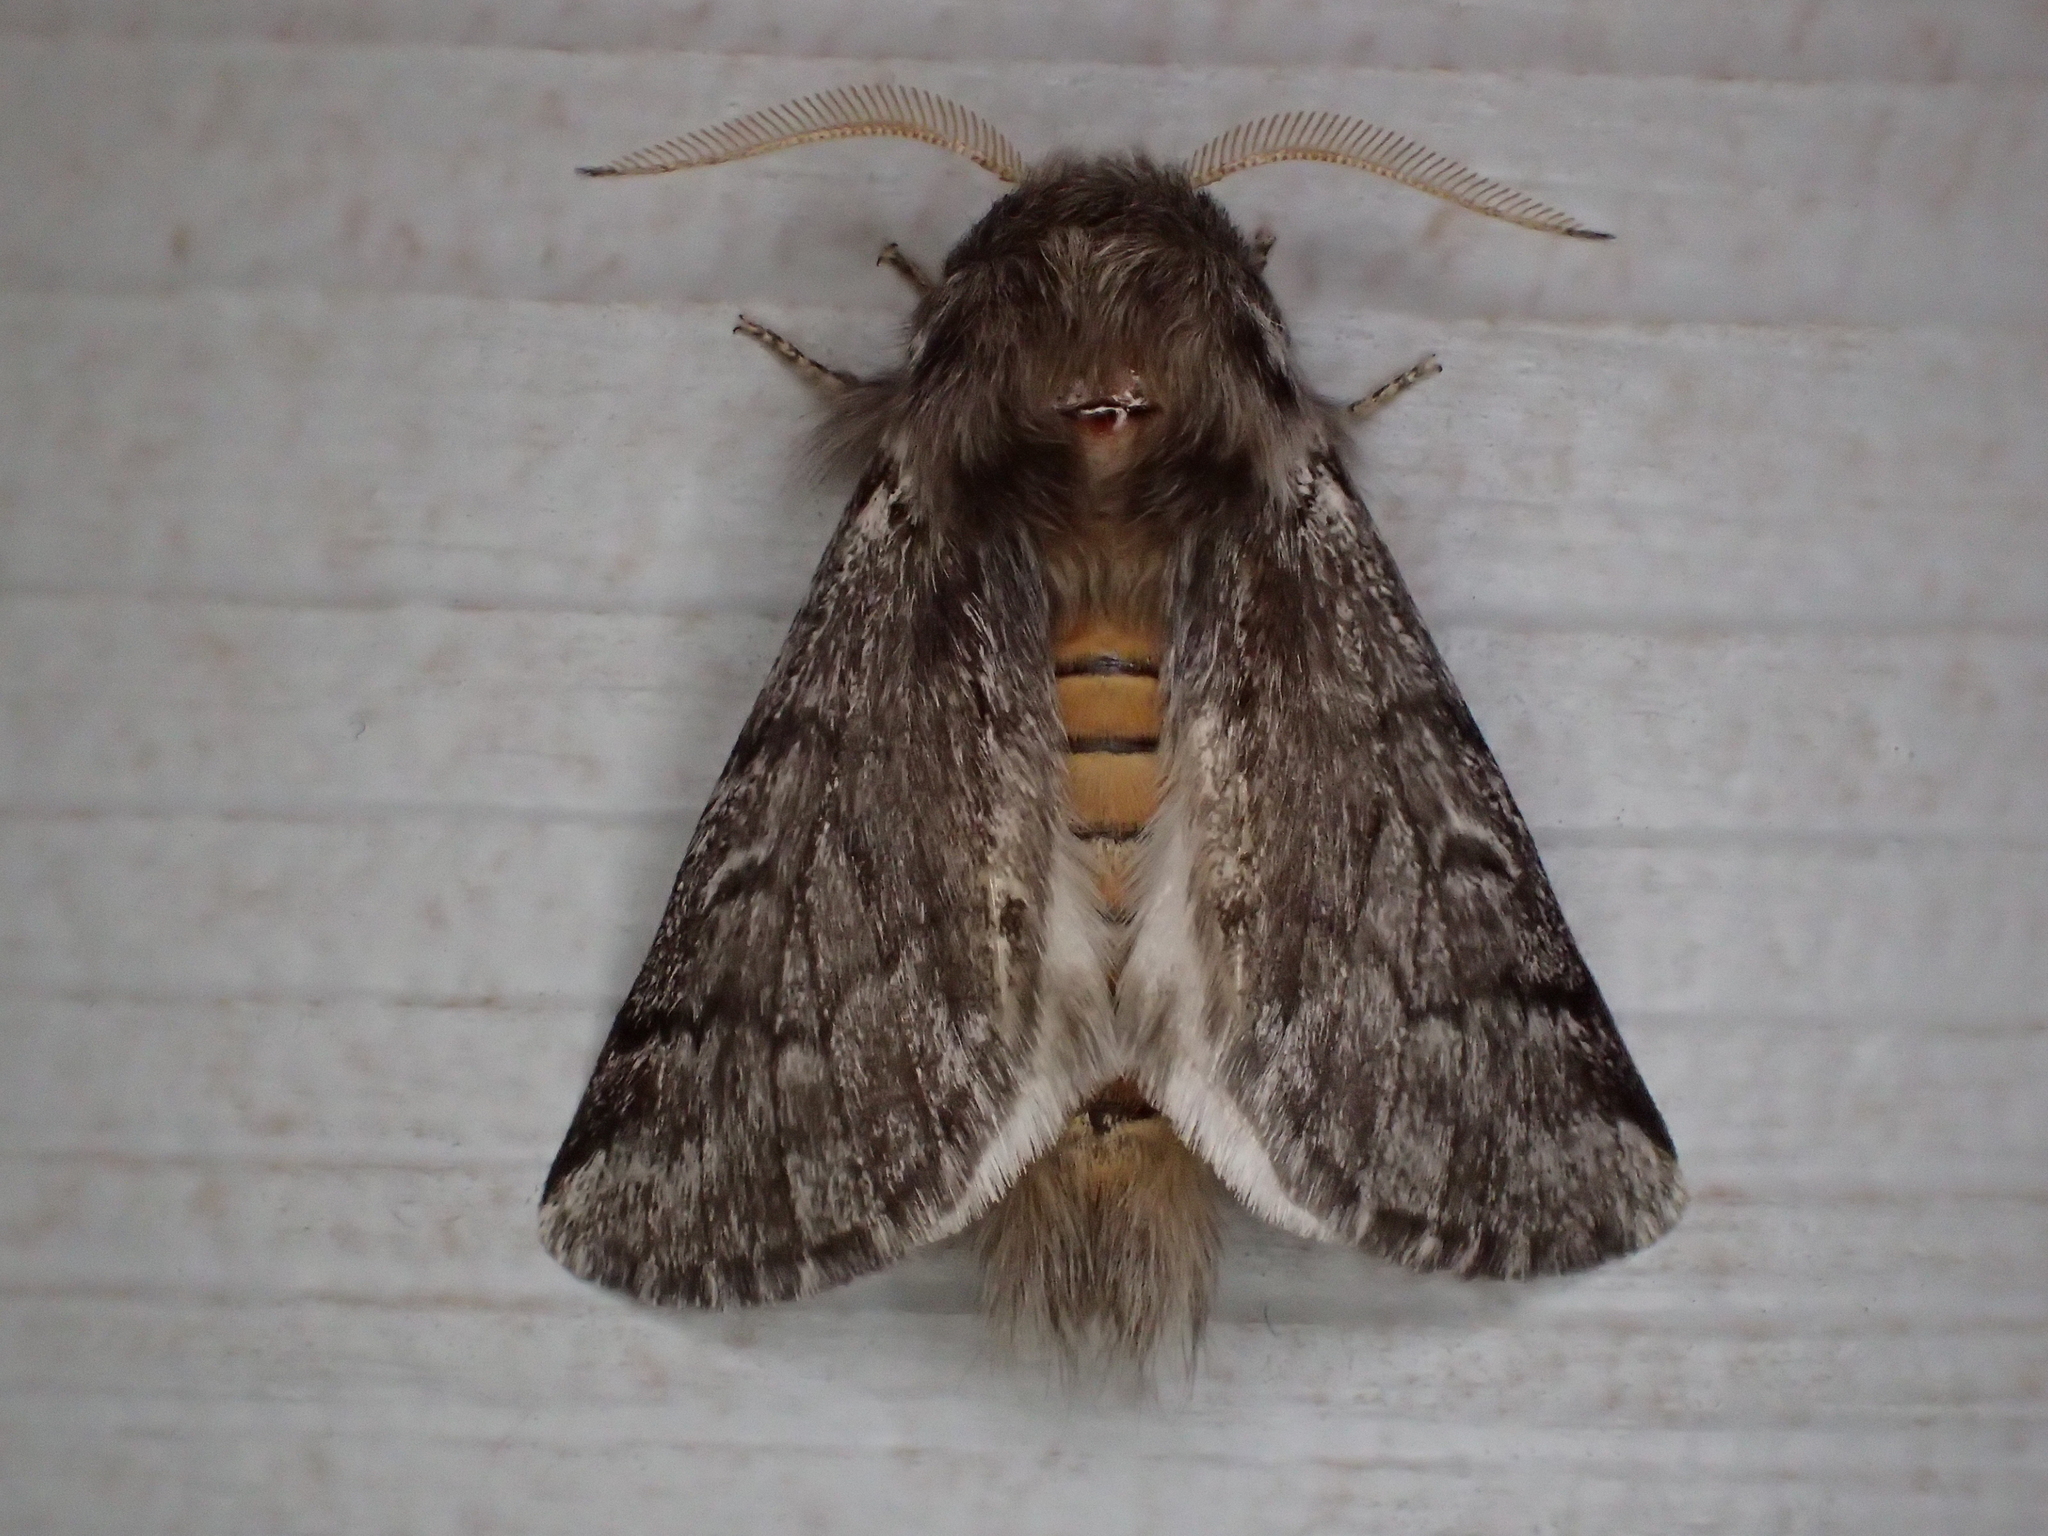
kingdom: Animalia
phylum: Arthropoda
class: Insecta
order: Lepidoptera
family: Notodontidae
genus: Thaumetopoea
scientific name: Thaumetopoea pityocampa
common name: Pine processionary
